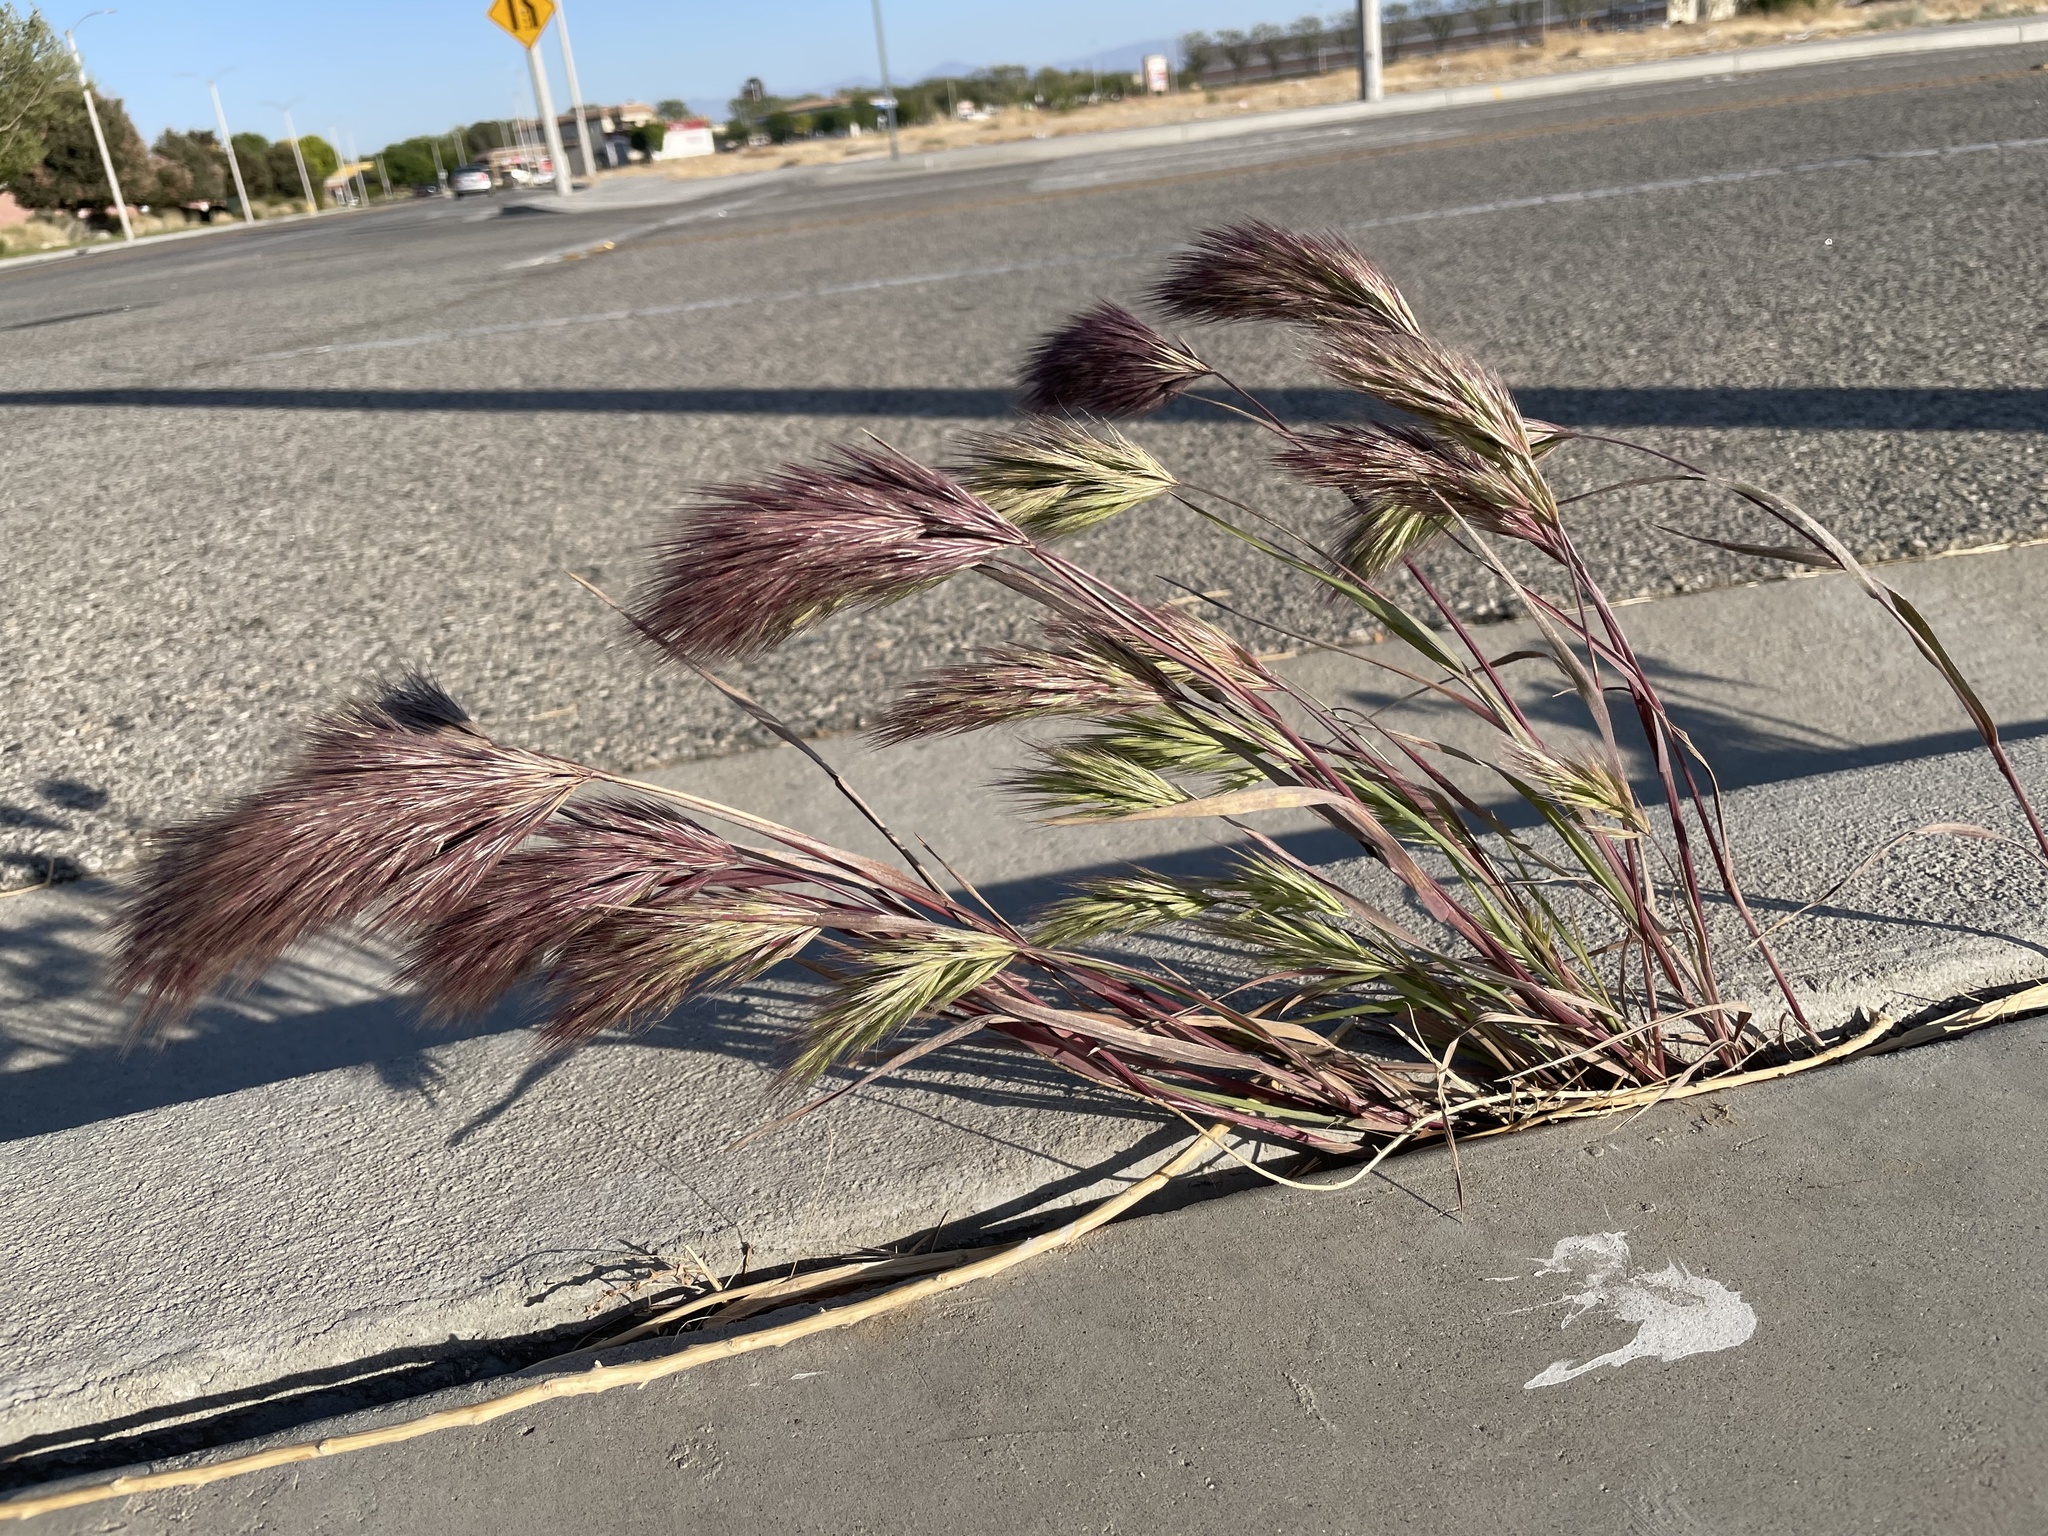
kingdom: Plantae
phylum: Tracheophyta
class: Liliopsida
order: Poales
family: Poaceae
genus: Bromus
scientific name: Bromus rubens
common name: Red brome
